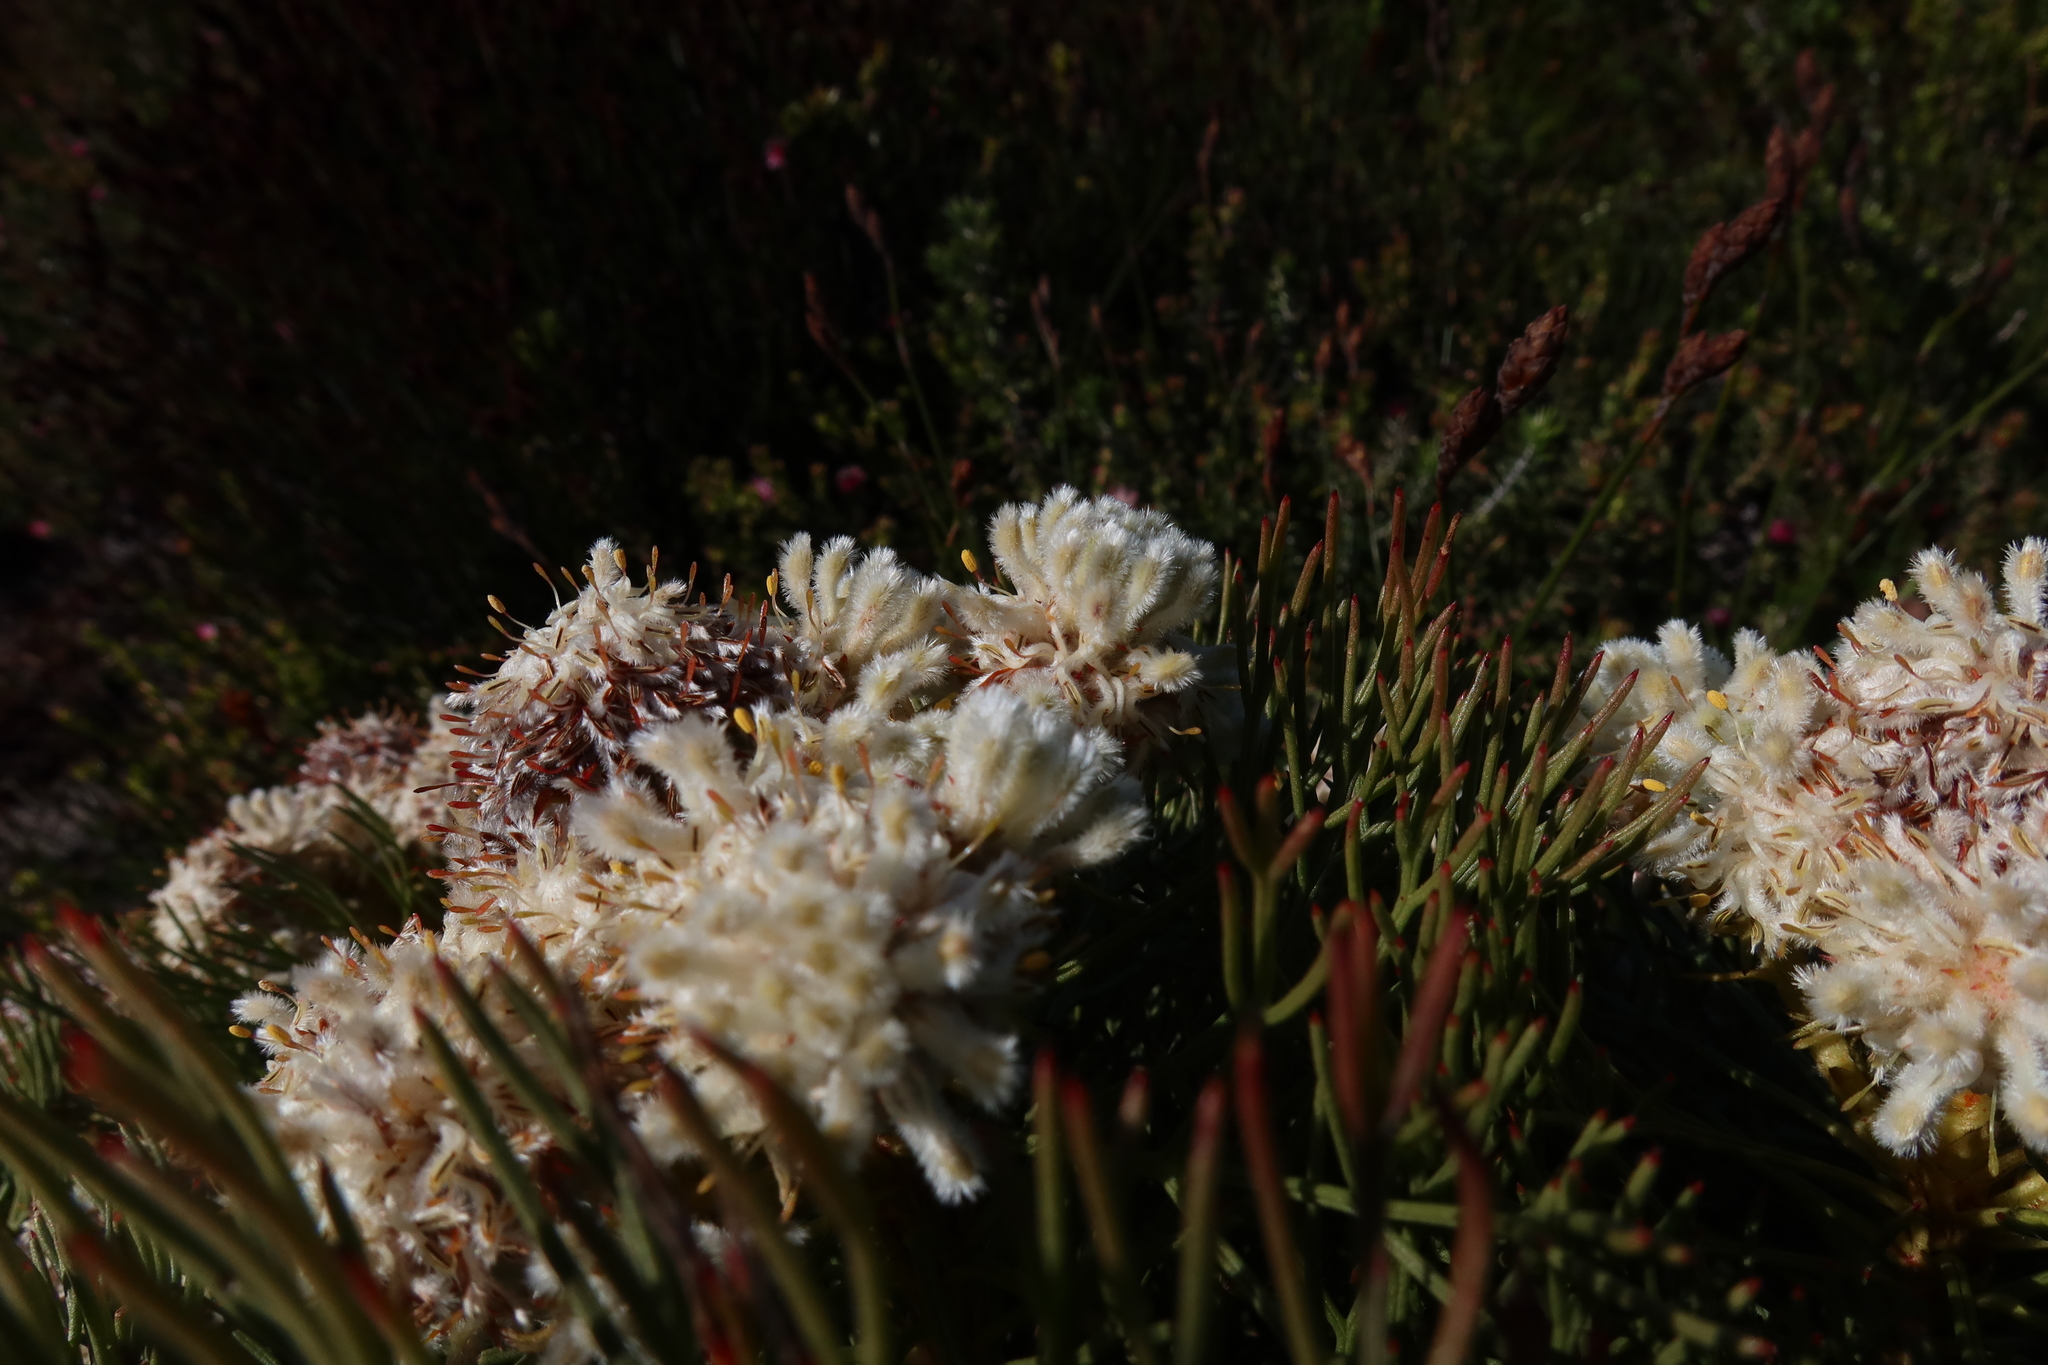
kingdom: Plantae
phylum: Tracheophyta
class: Magnoliopsida
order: Proteales
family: Proteaceae
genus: Serruria
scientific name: Serruria glomerata
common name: Cluster spiderhead
